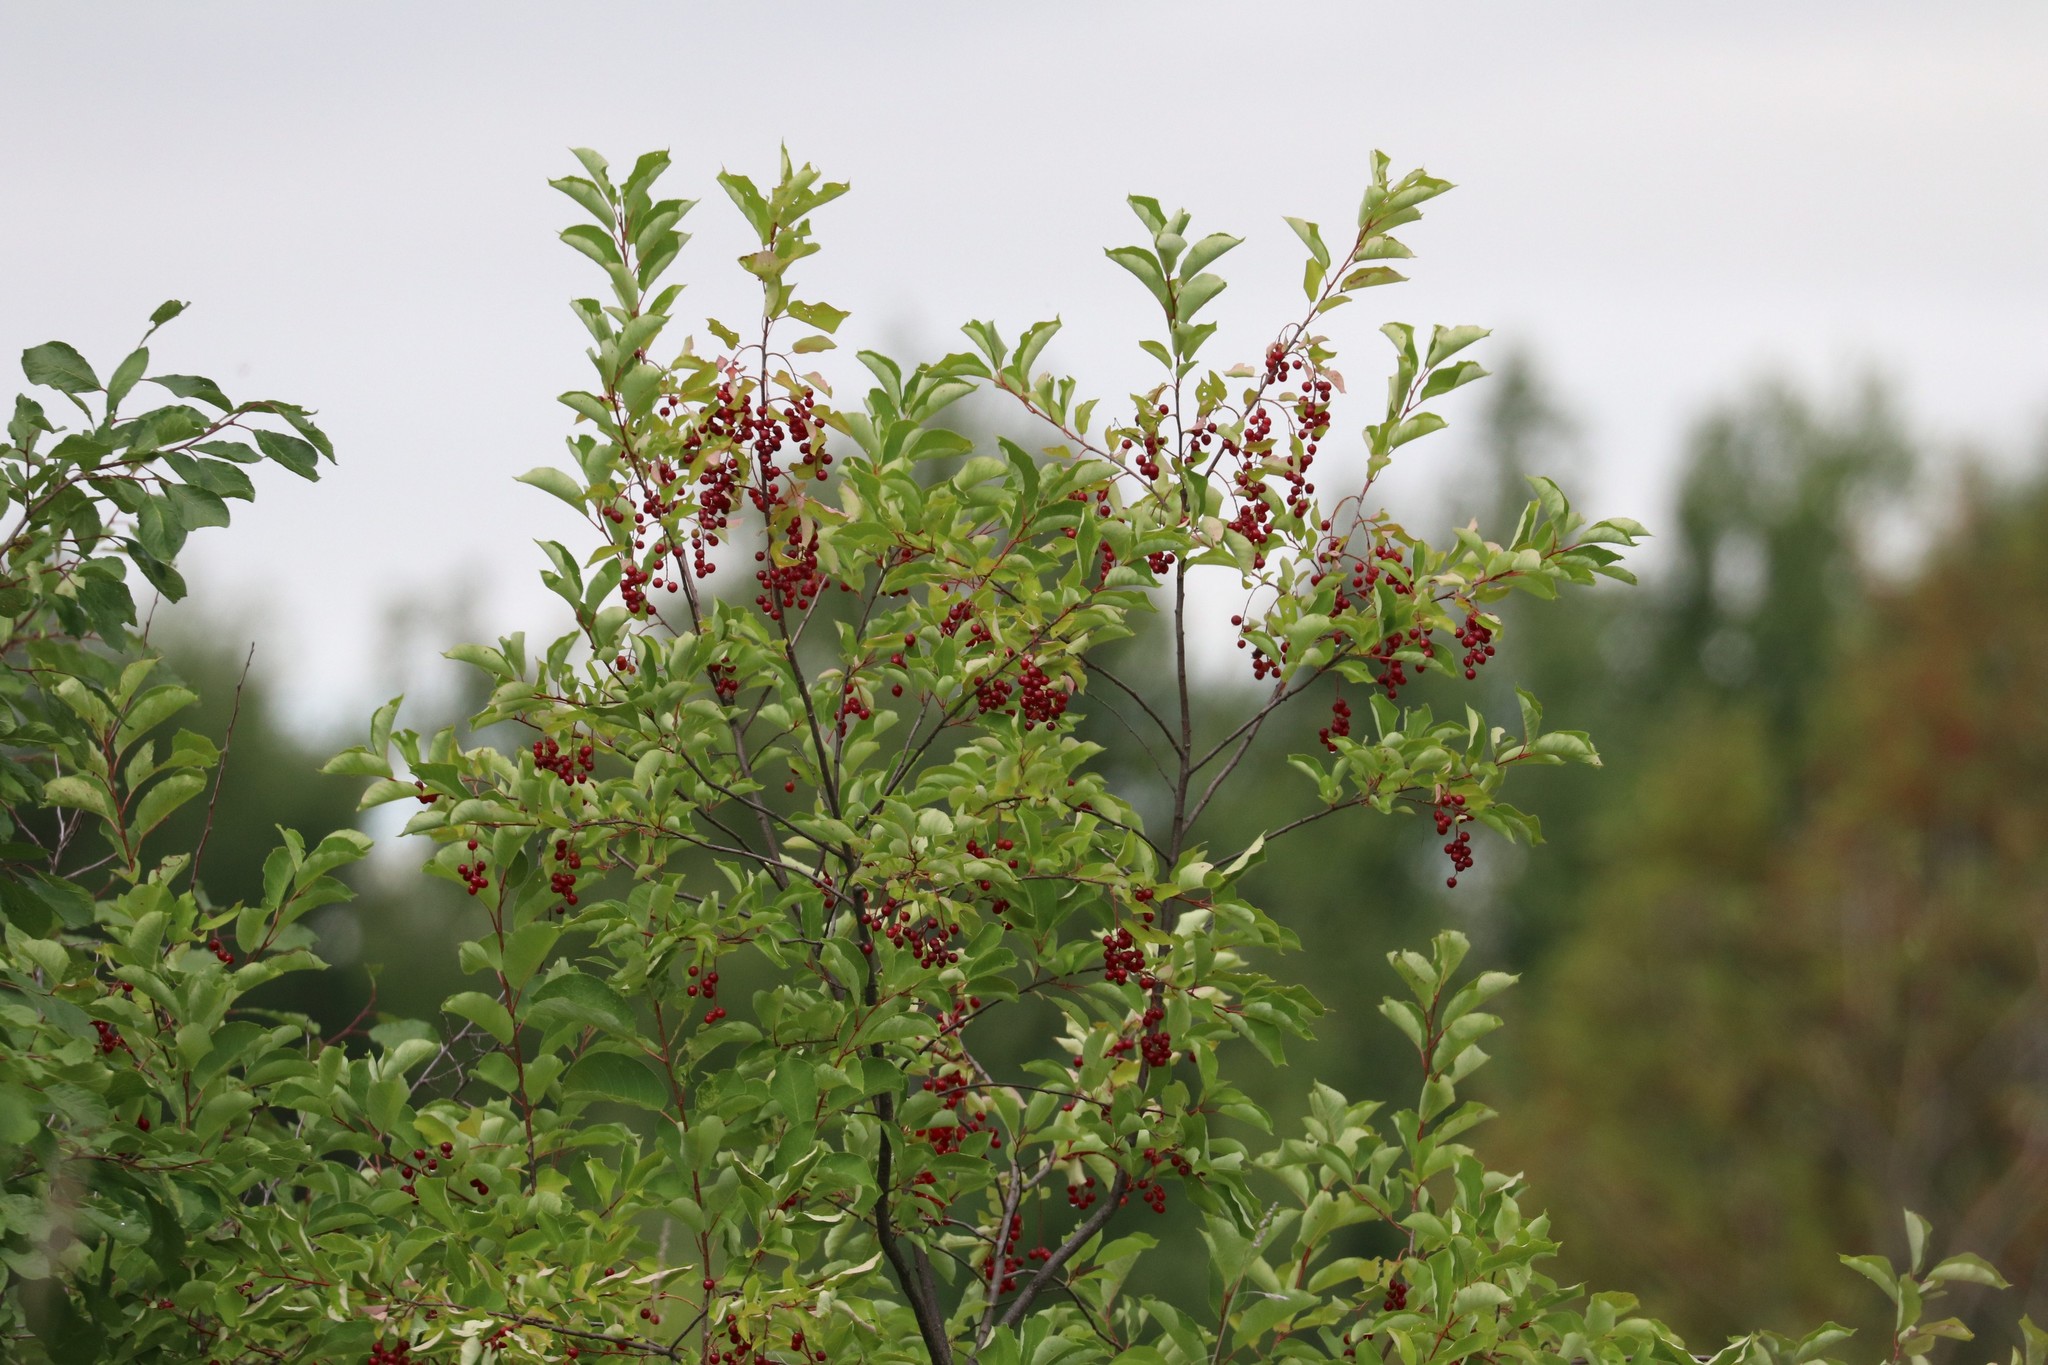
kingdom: Plantae
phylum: Tracheophyta
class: Magnoliopsida
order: Rosales
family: Rosaceae
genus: Prunus
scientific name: Prunus virginiana
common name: Chokecherry
